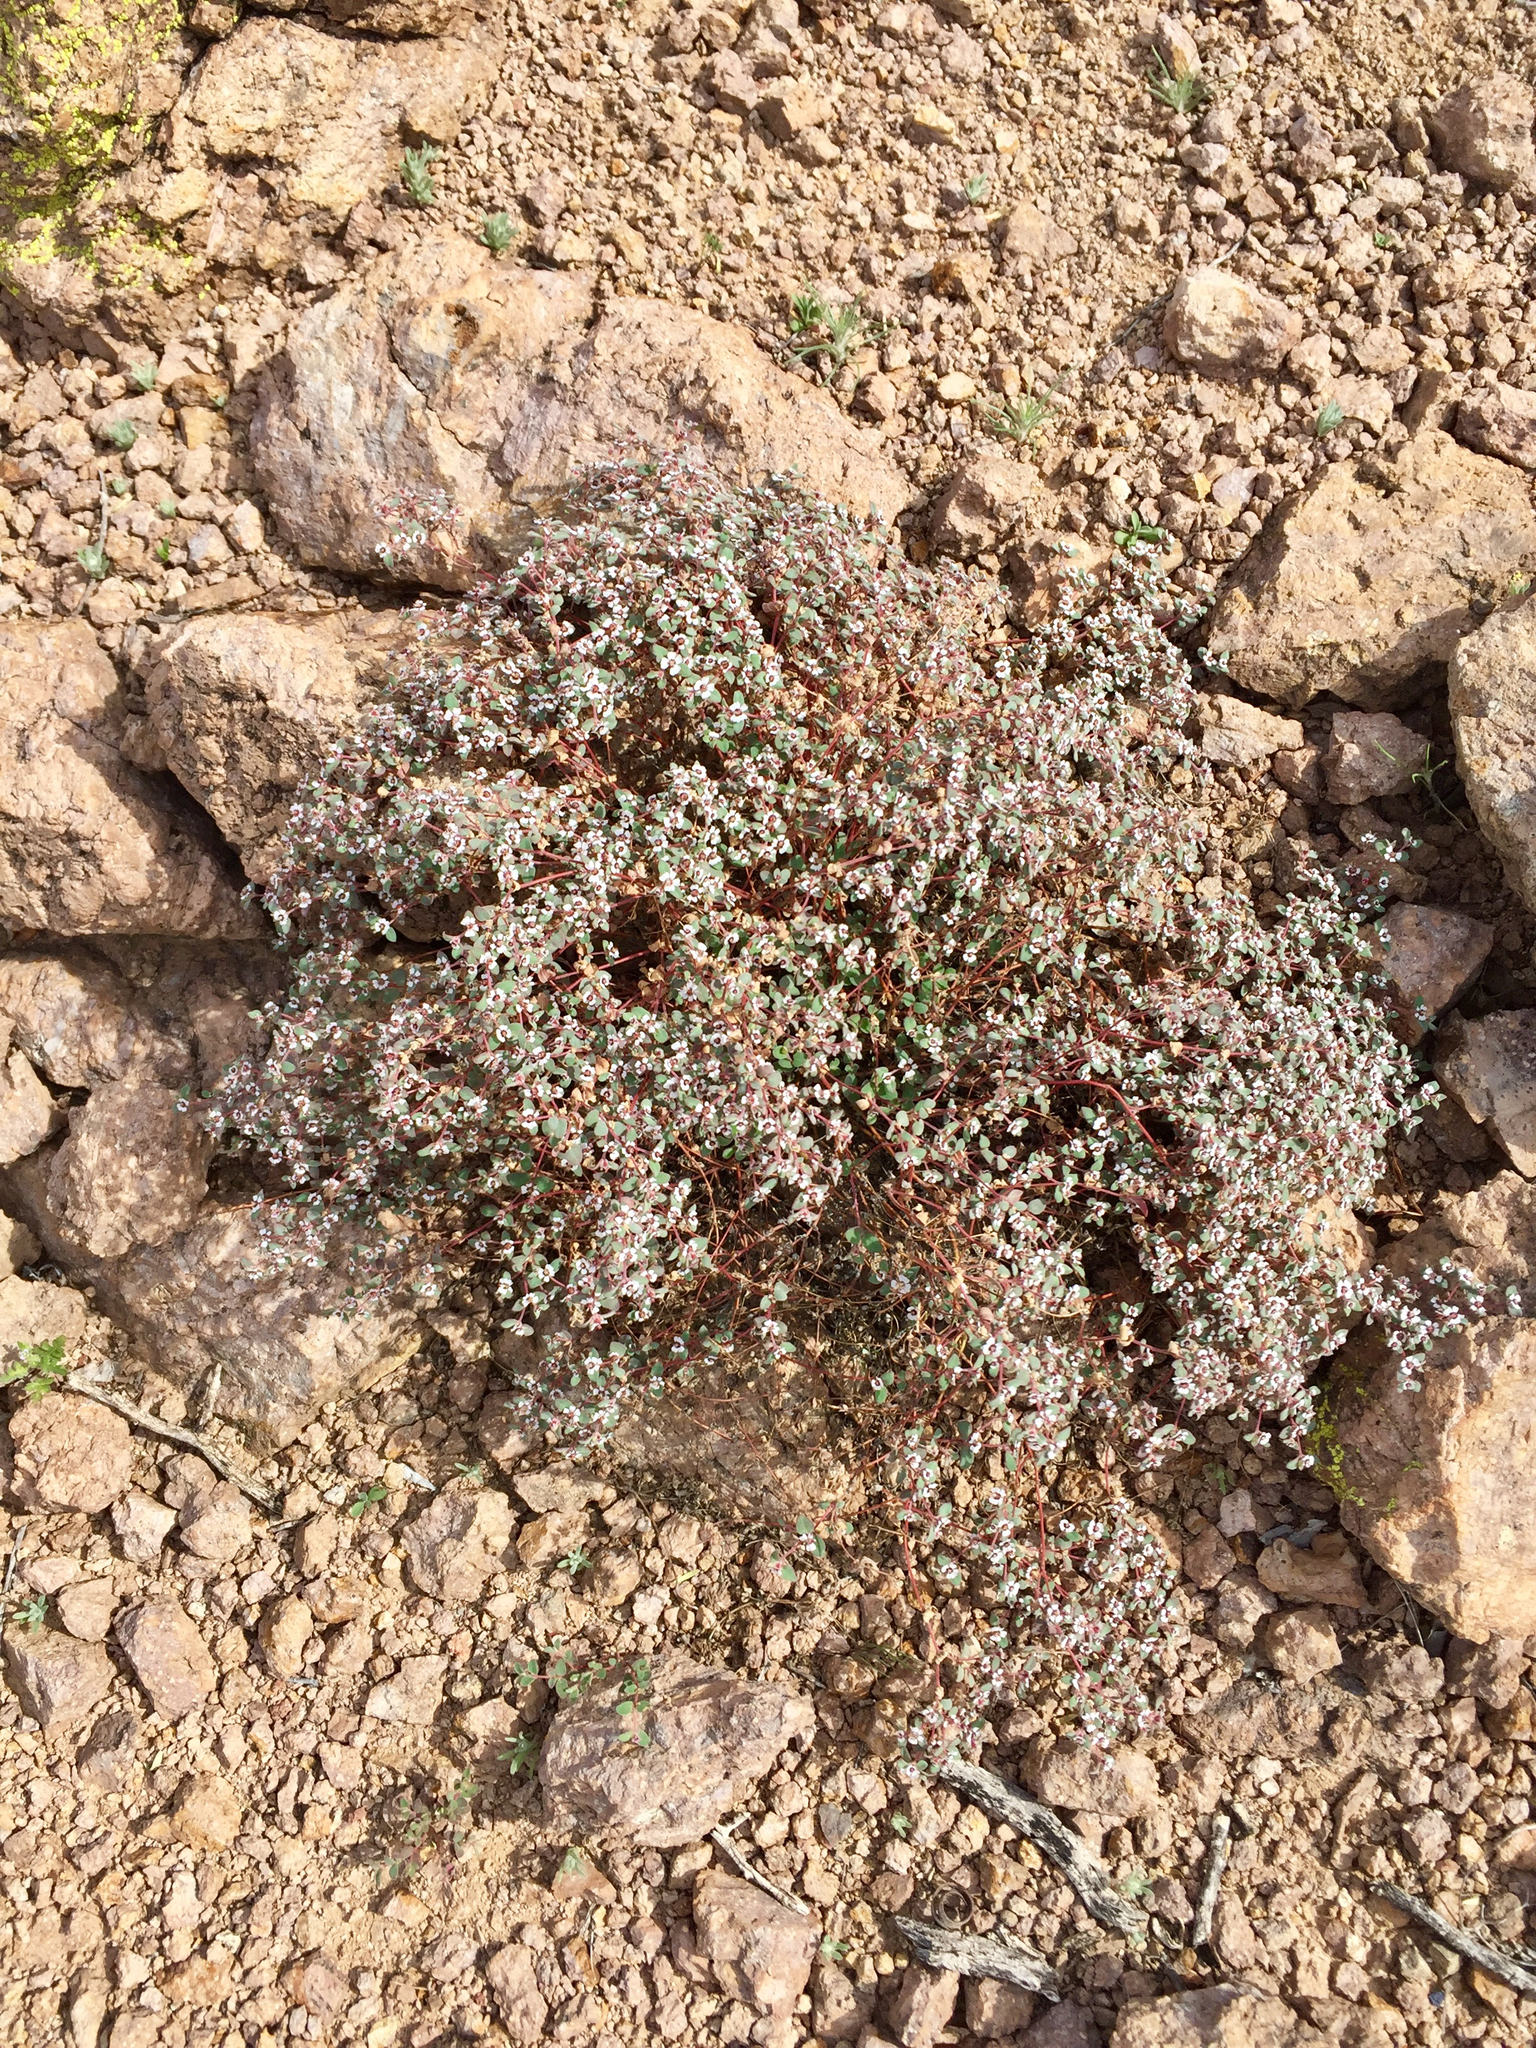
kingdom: Plantae
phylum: Tracheophyta
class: Magnoliopsida
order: Malpighiales
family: Euphorbiaceae
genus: Euphorbia
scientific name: Euphorbia melanadenia
